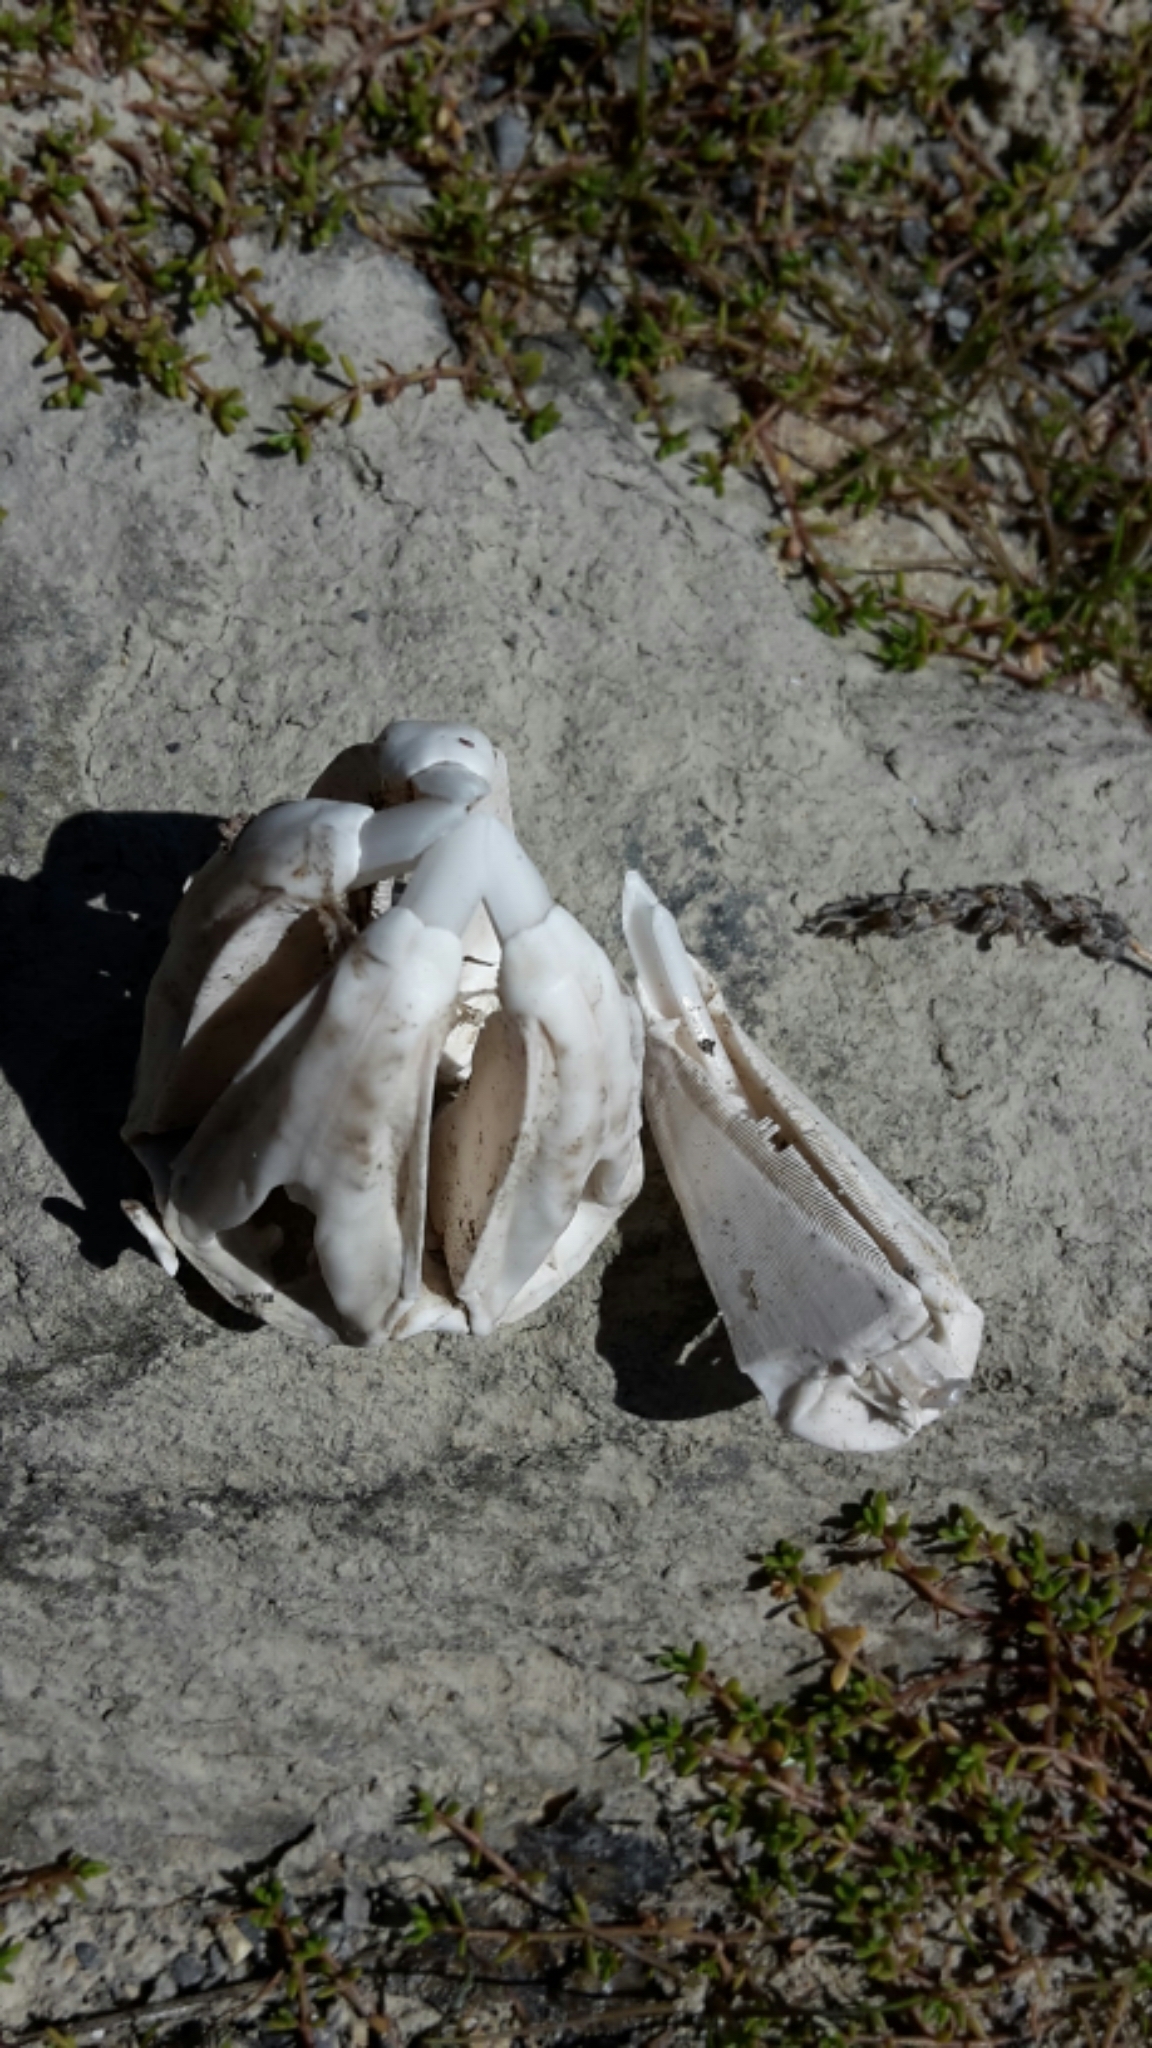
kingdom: Animalia
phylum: Echinodermata
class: Echinoidea
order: Camarodonta
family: Echinometridae
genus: Evechinus
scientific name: Evechinus chloroticus
